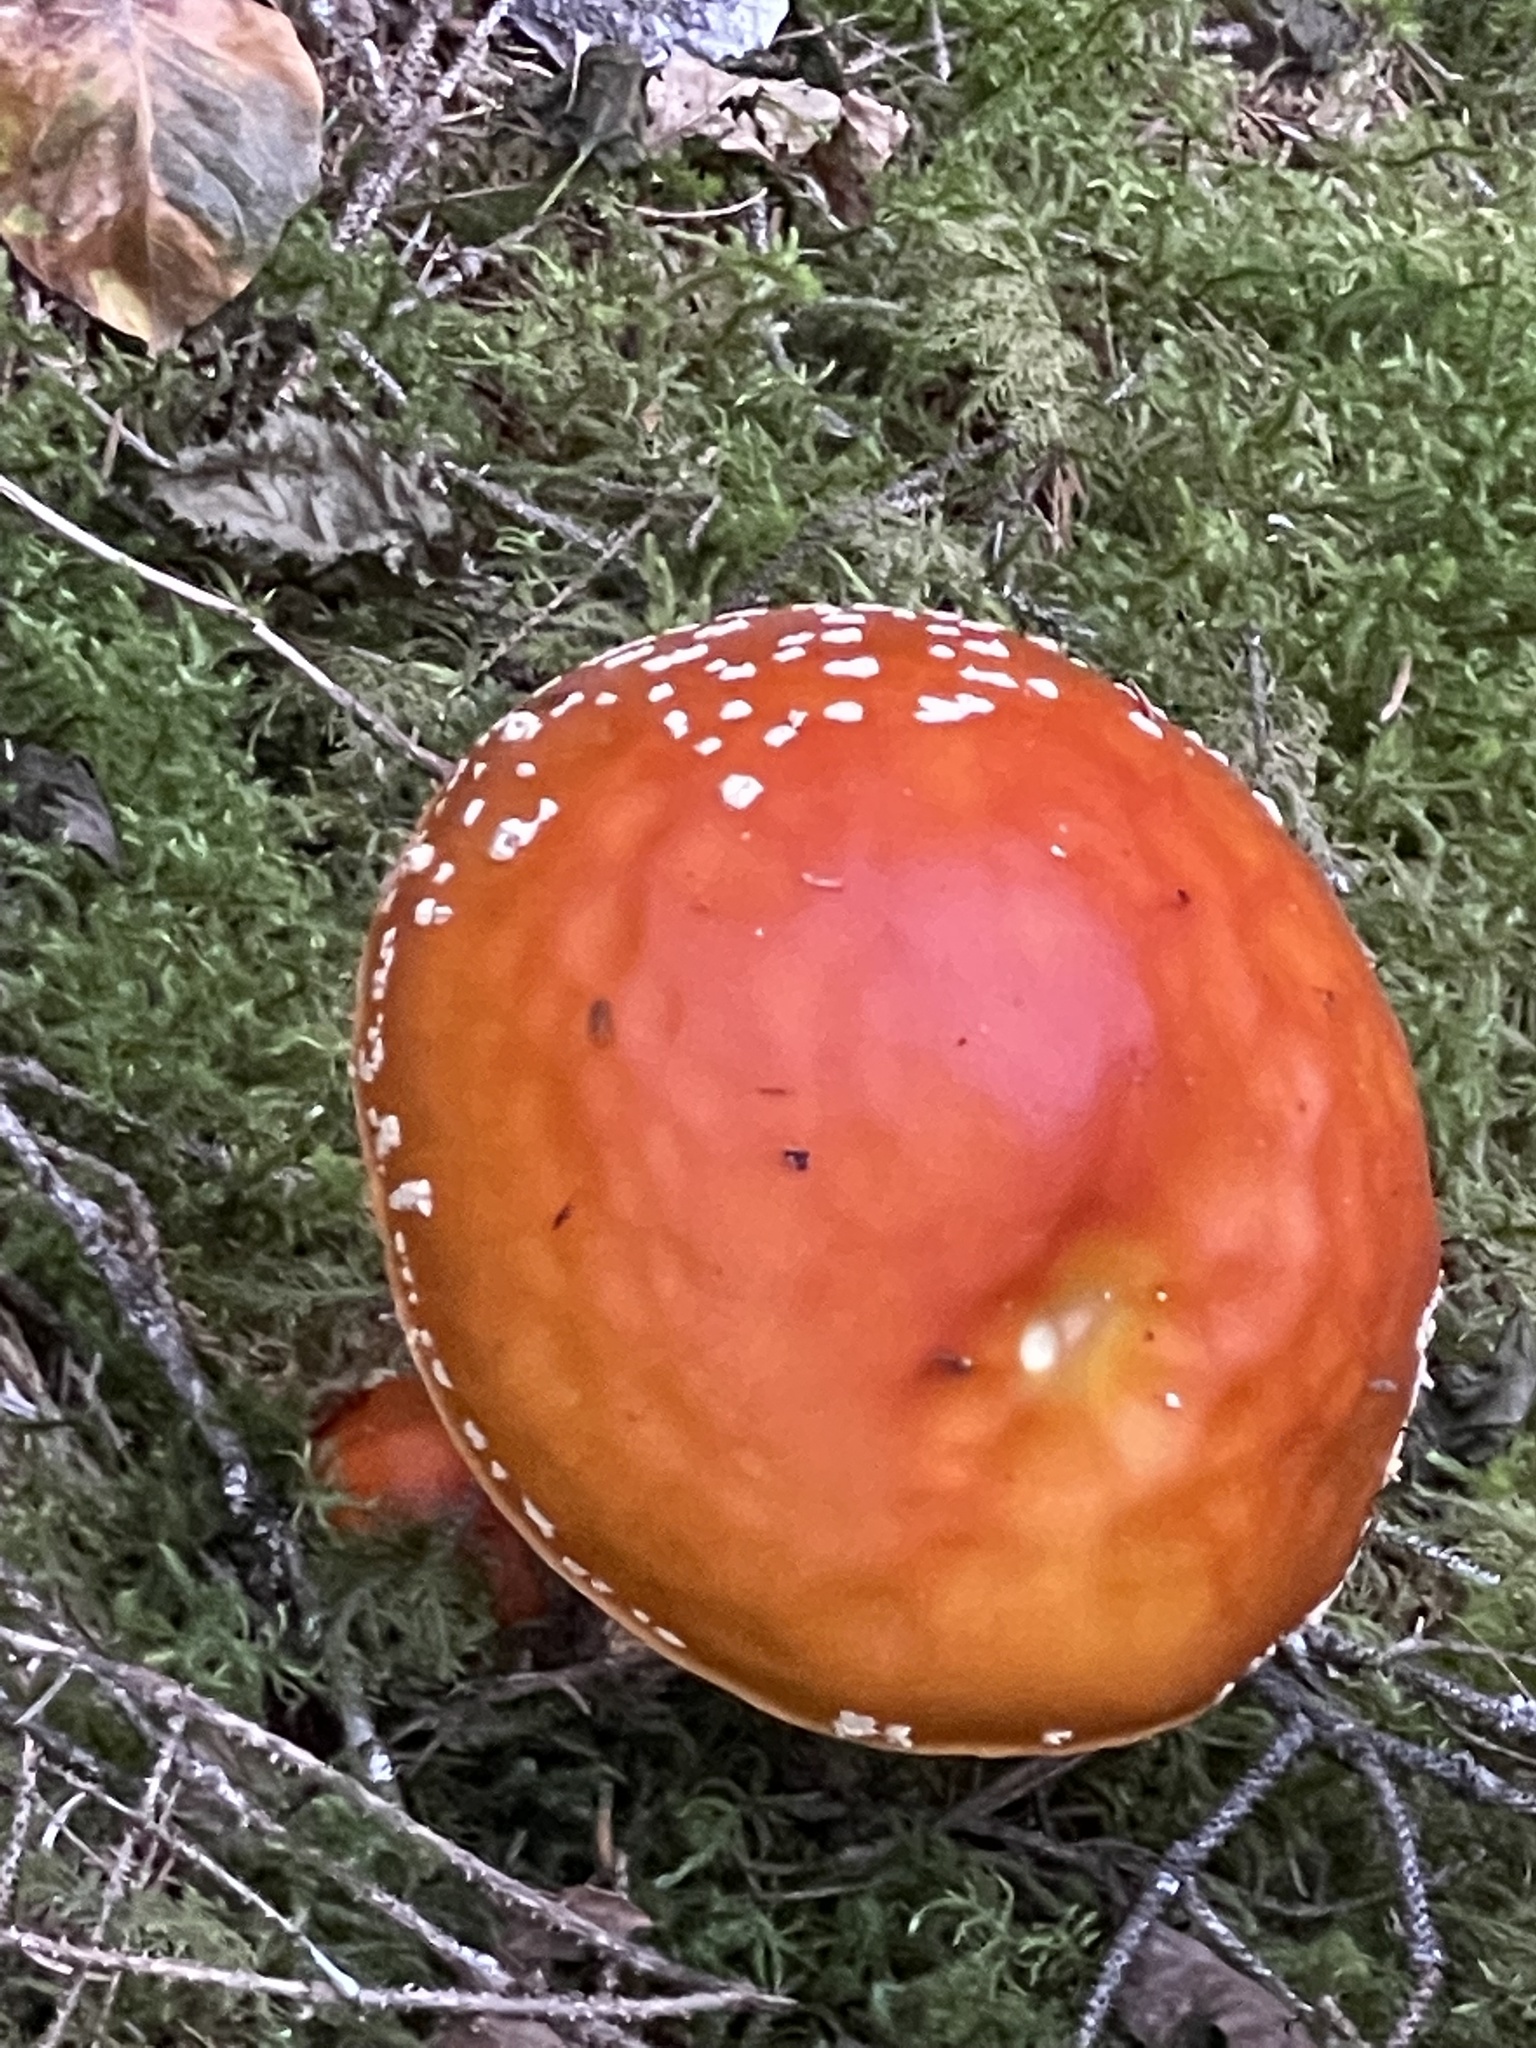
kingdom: Fungi
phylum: Basidiomycota
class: Agaricomycetes
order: Agaricales
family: Amanitaceae
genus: Amanita
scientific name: Amanita muscaria
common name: Fly agaric
